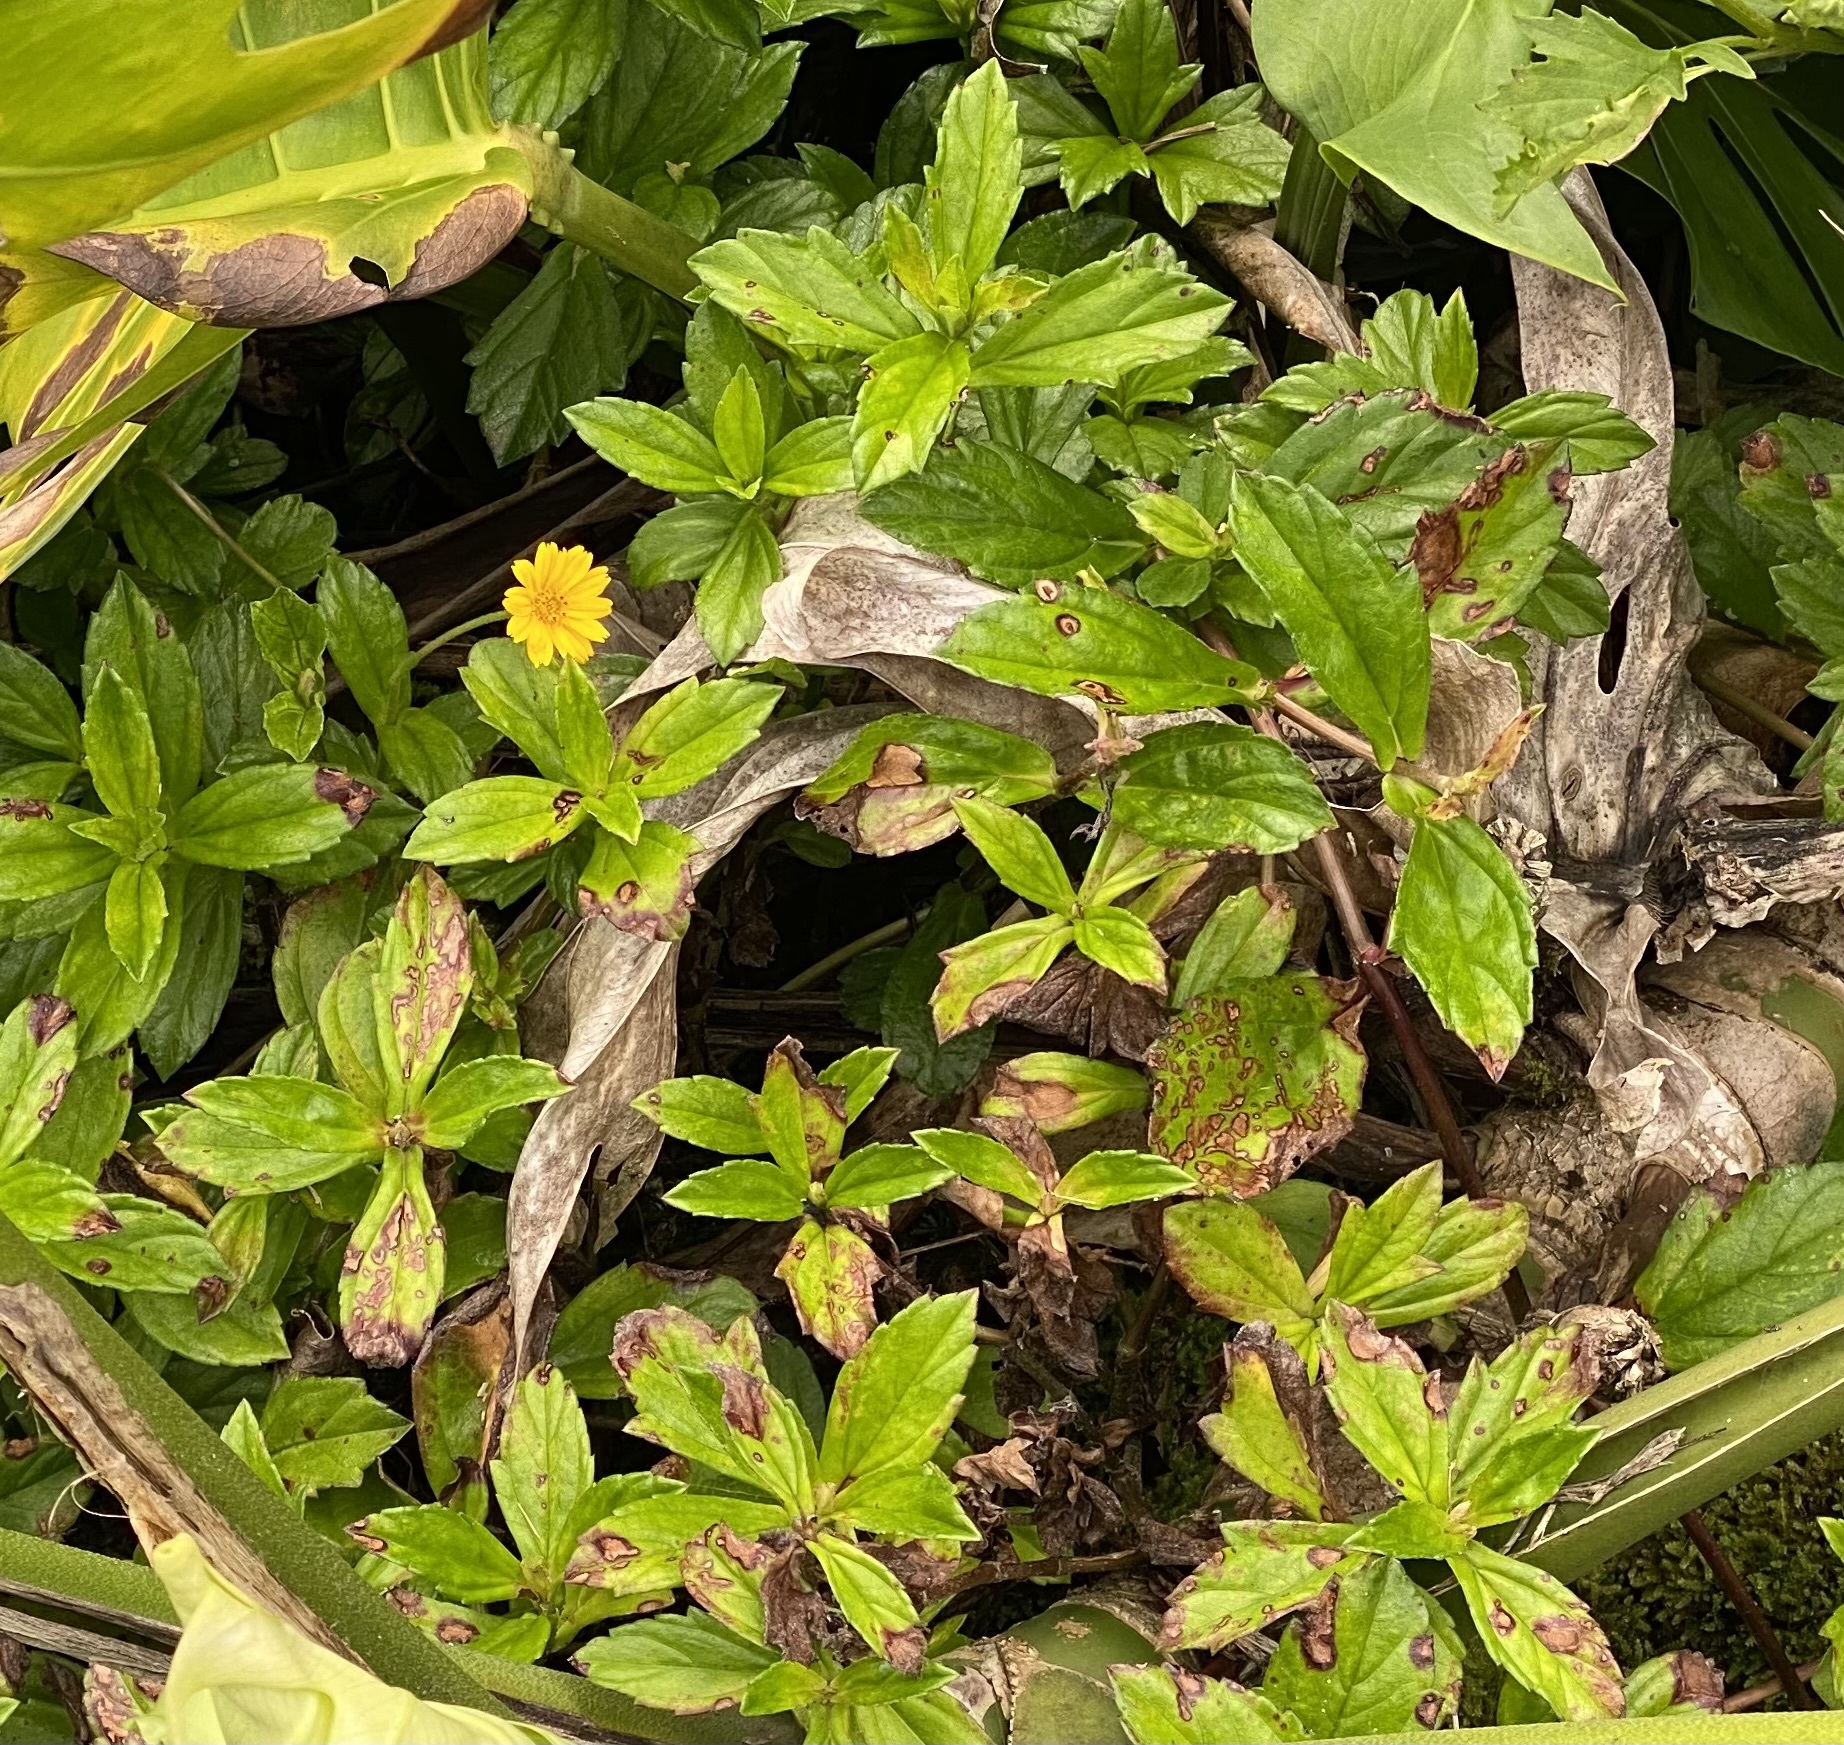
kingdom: Plantae
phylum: Tracheophyta
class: Magnoliopsida
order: Asterales
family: Asteraceae
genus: Sphagneticola
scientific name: Sphagneticola trilobata
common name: Bay biscayne creeping-oxeye
